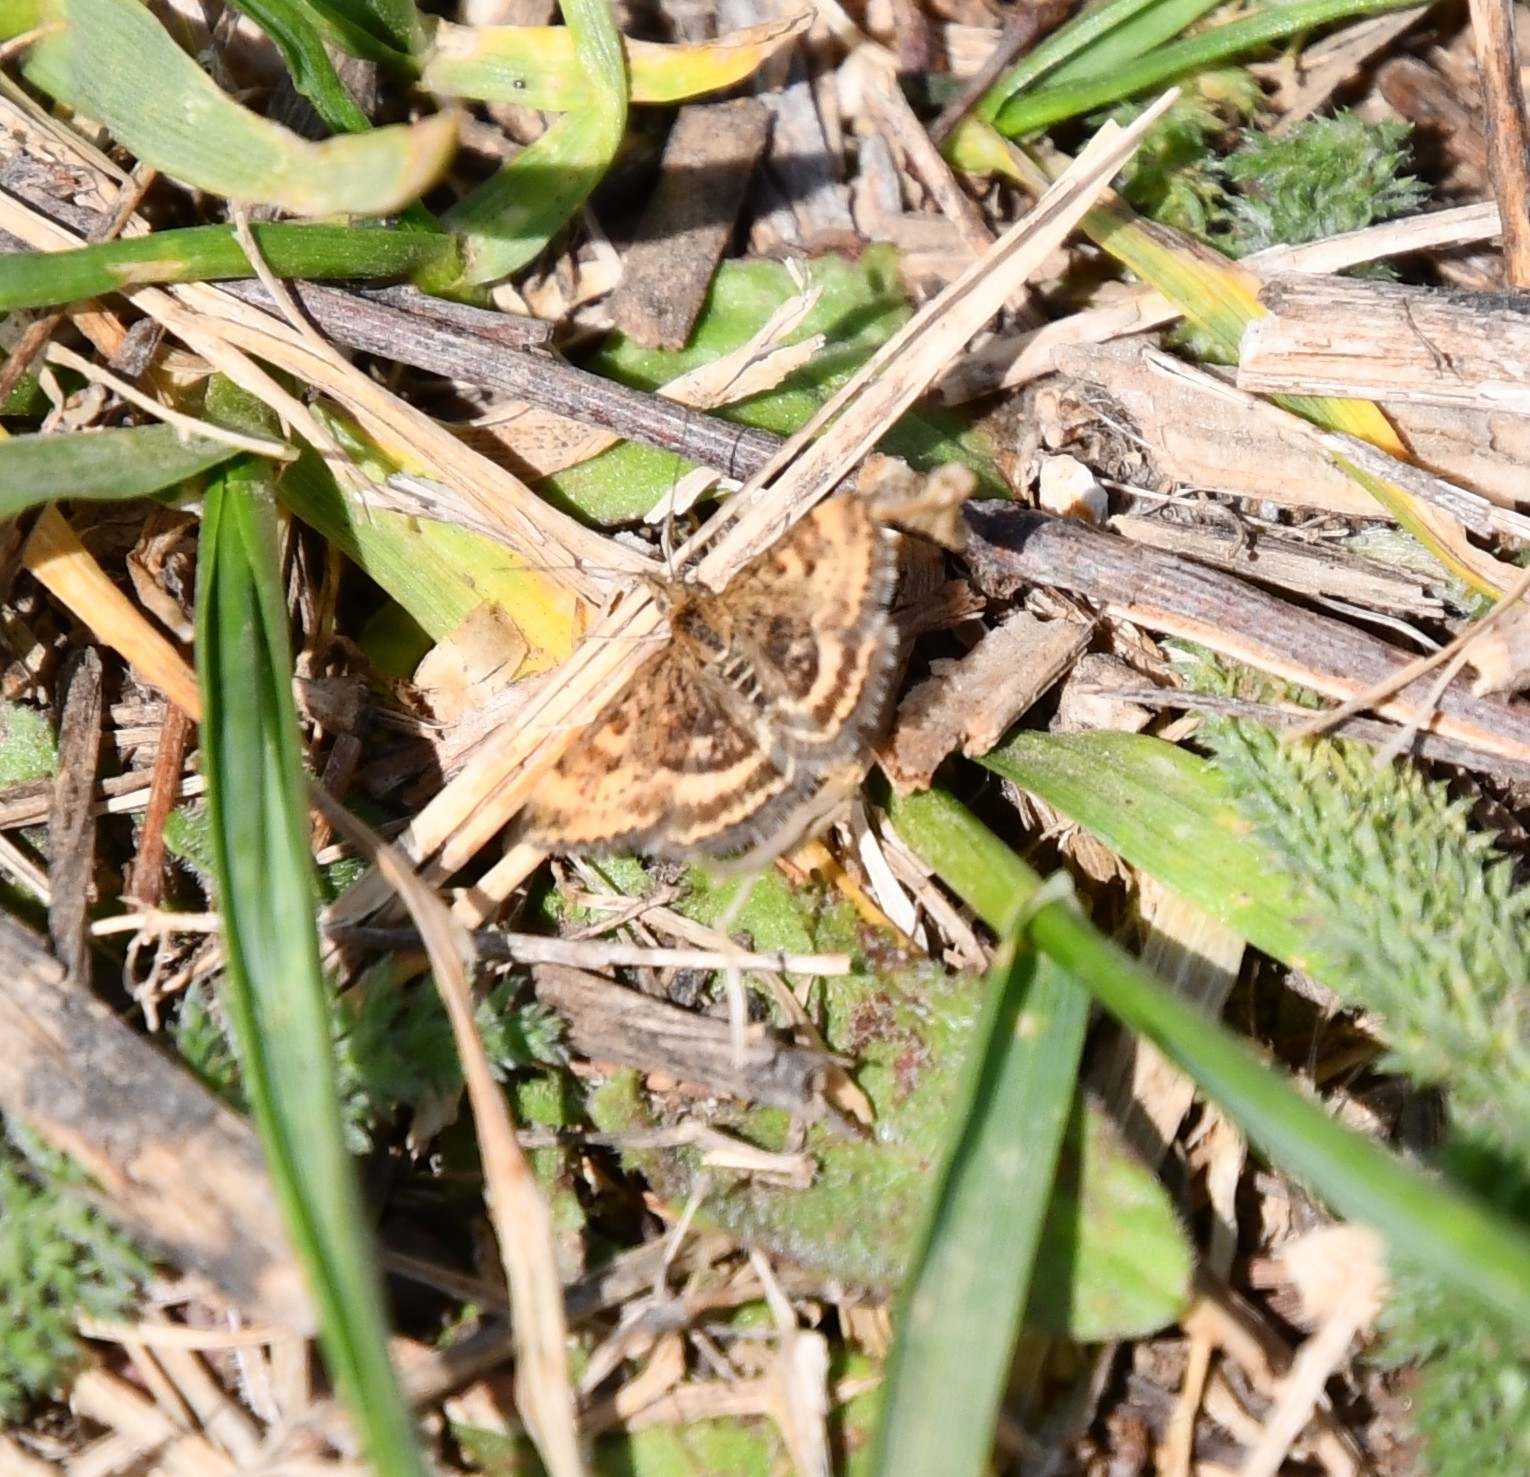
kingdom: Animalia
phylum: Arthropoda
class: Insecta
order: Lepidoptera
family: Crambidae
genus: Pyrausta
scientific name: Pyrausta despicata
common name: Straw-barred pearl
